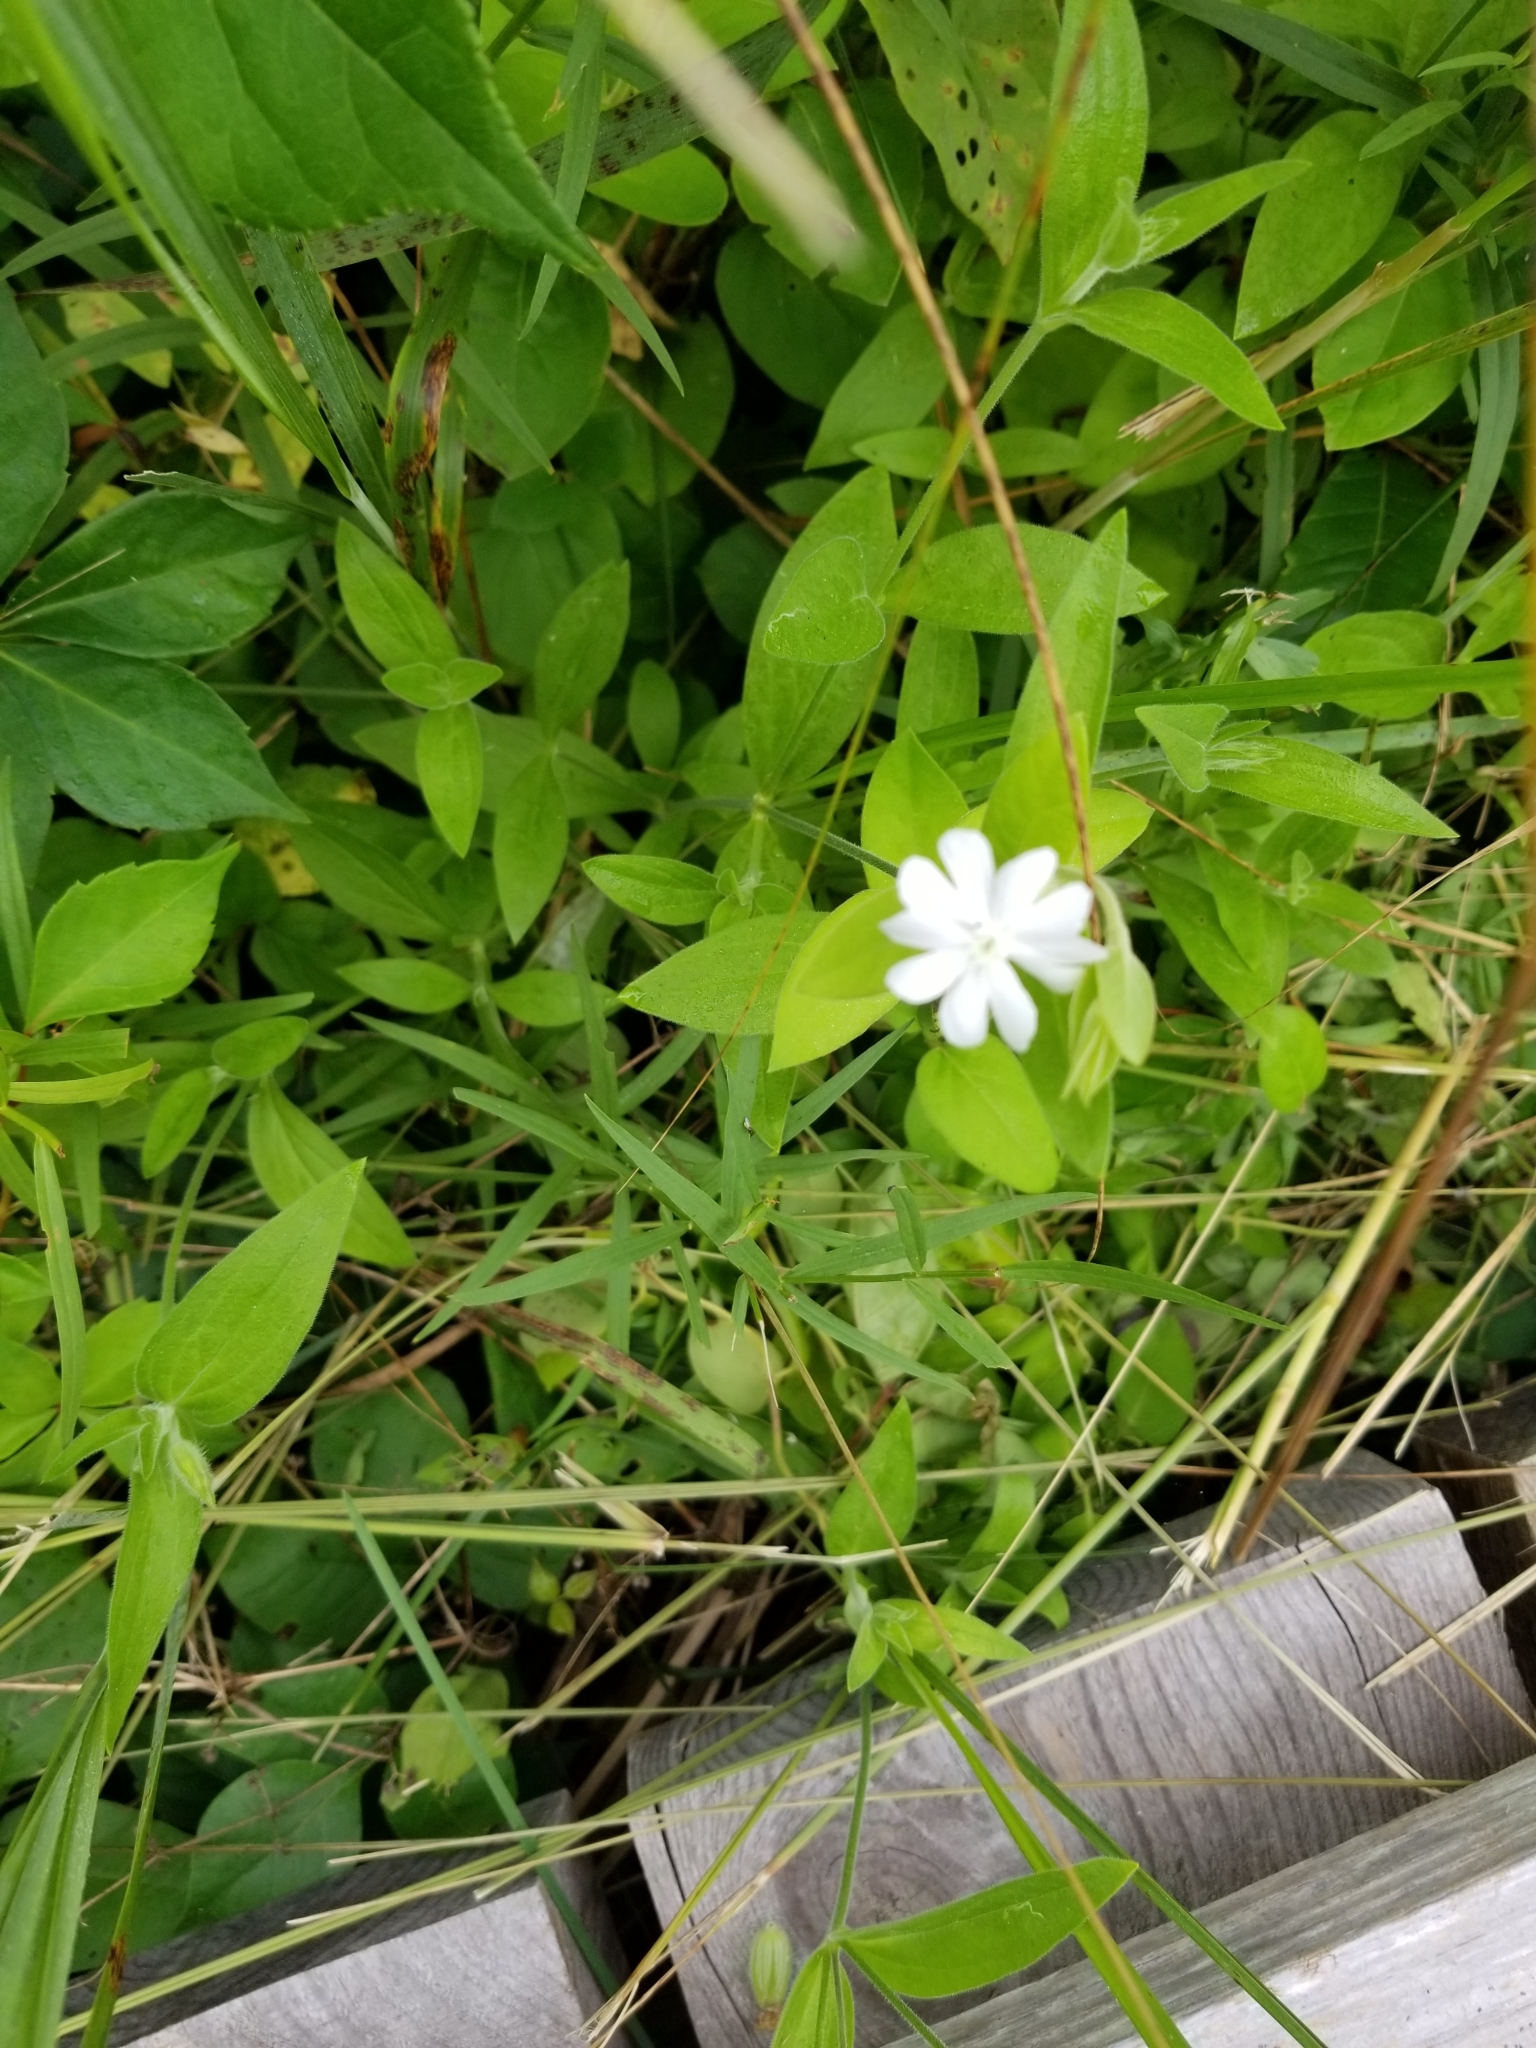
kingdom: Plantae
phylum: Tracheophyta
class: Magnoliopsida
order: Caryophyllales
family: Caryophyllaceae
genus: Silene
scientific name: Silene latifolia
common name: White campion
